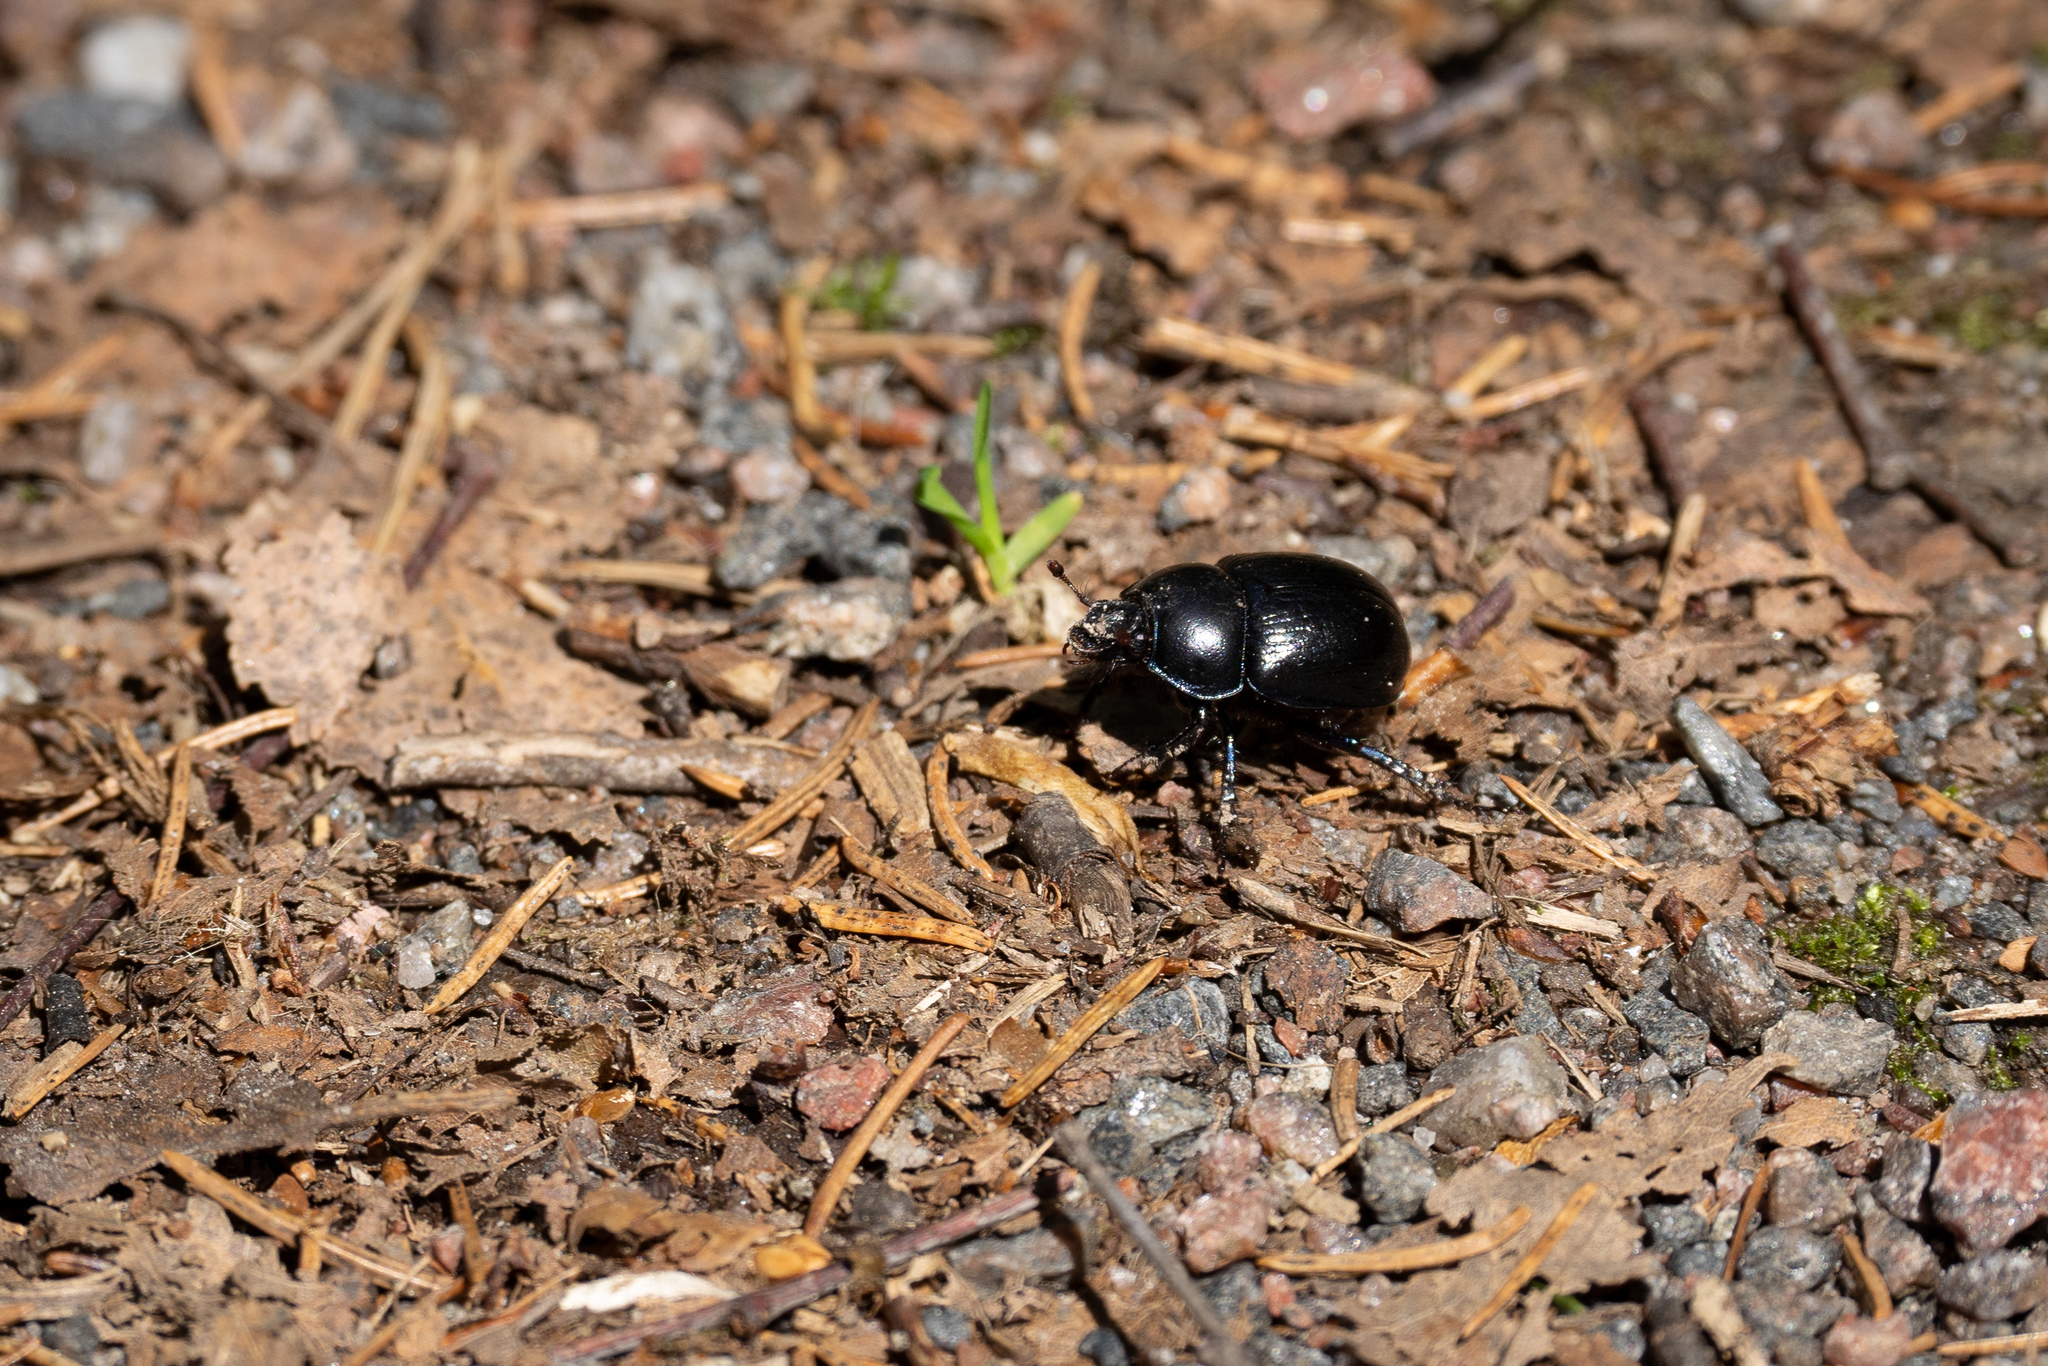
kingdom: Animalia
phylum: Arthropoda
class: Insecta
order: Coleoptera
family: Geotrupidae
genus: Anoplotrupes
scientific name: Anoplotrupes stercorosus
